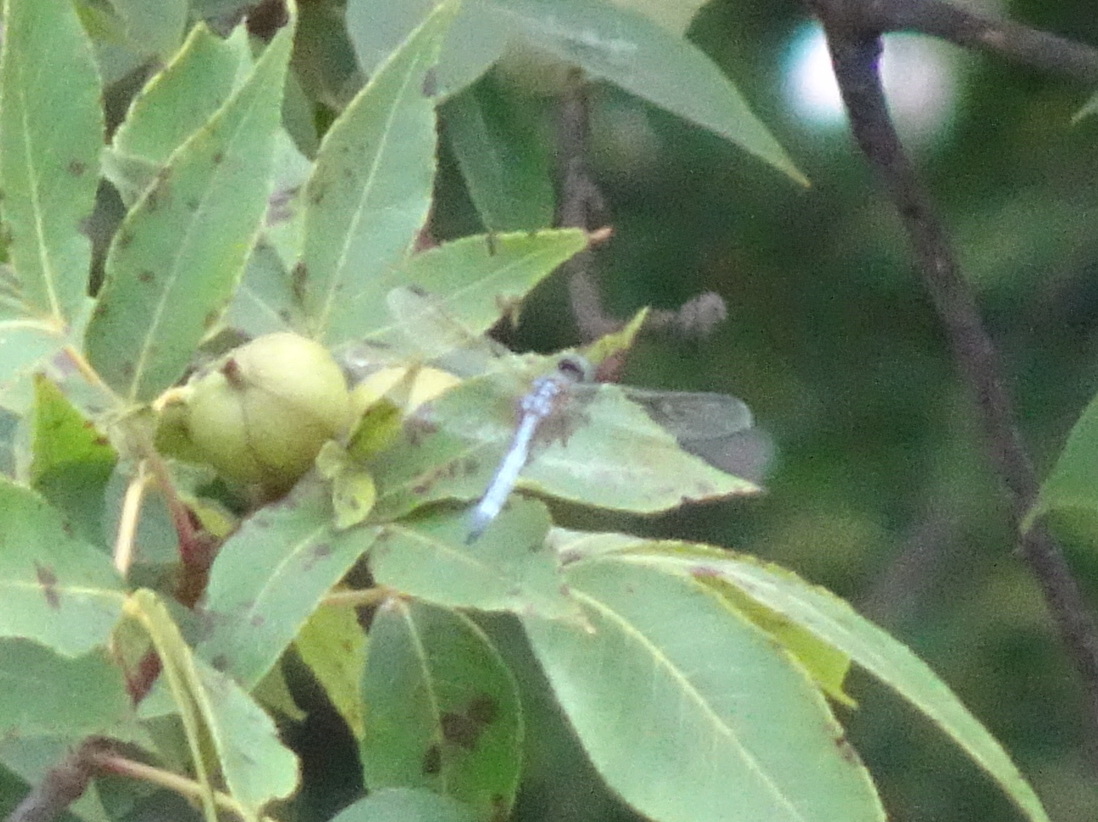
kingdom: Animalia
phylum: Arthropoda
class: Insecta
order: Odonata
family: Libellulidae
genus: Pachydiplax
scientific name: Pachydiplax longipennis
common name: Blue dasher
